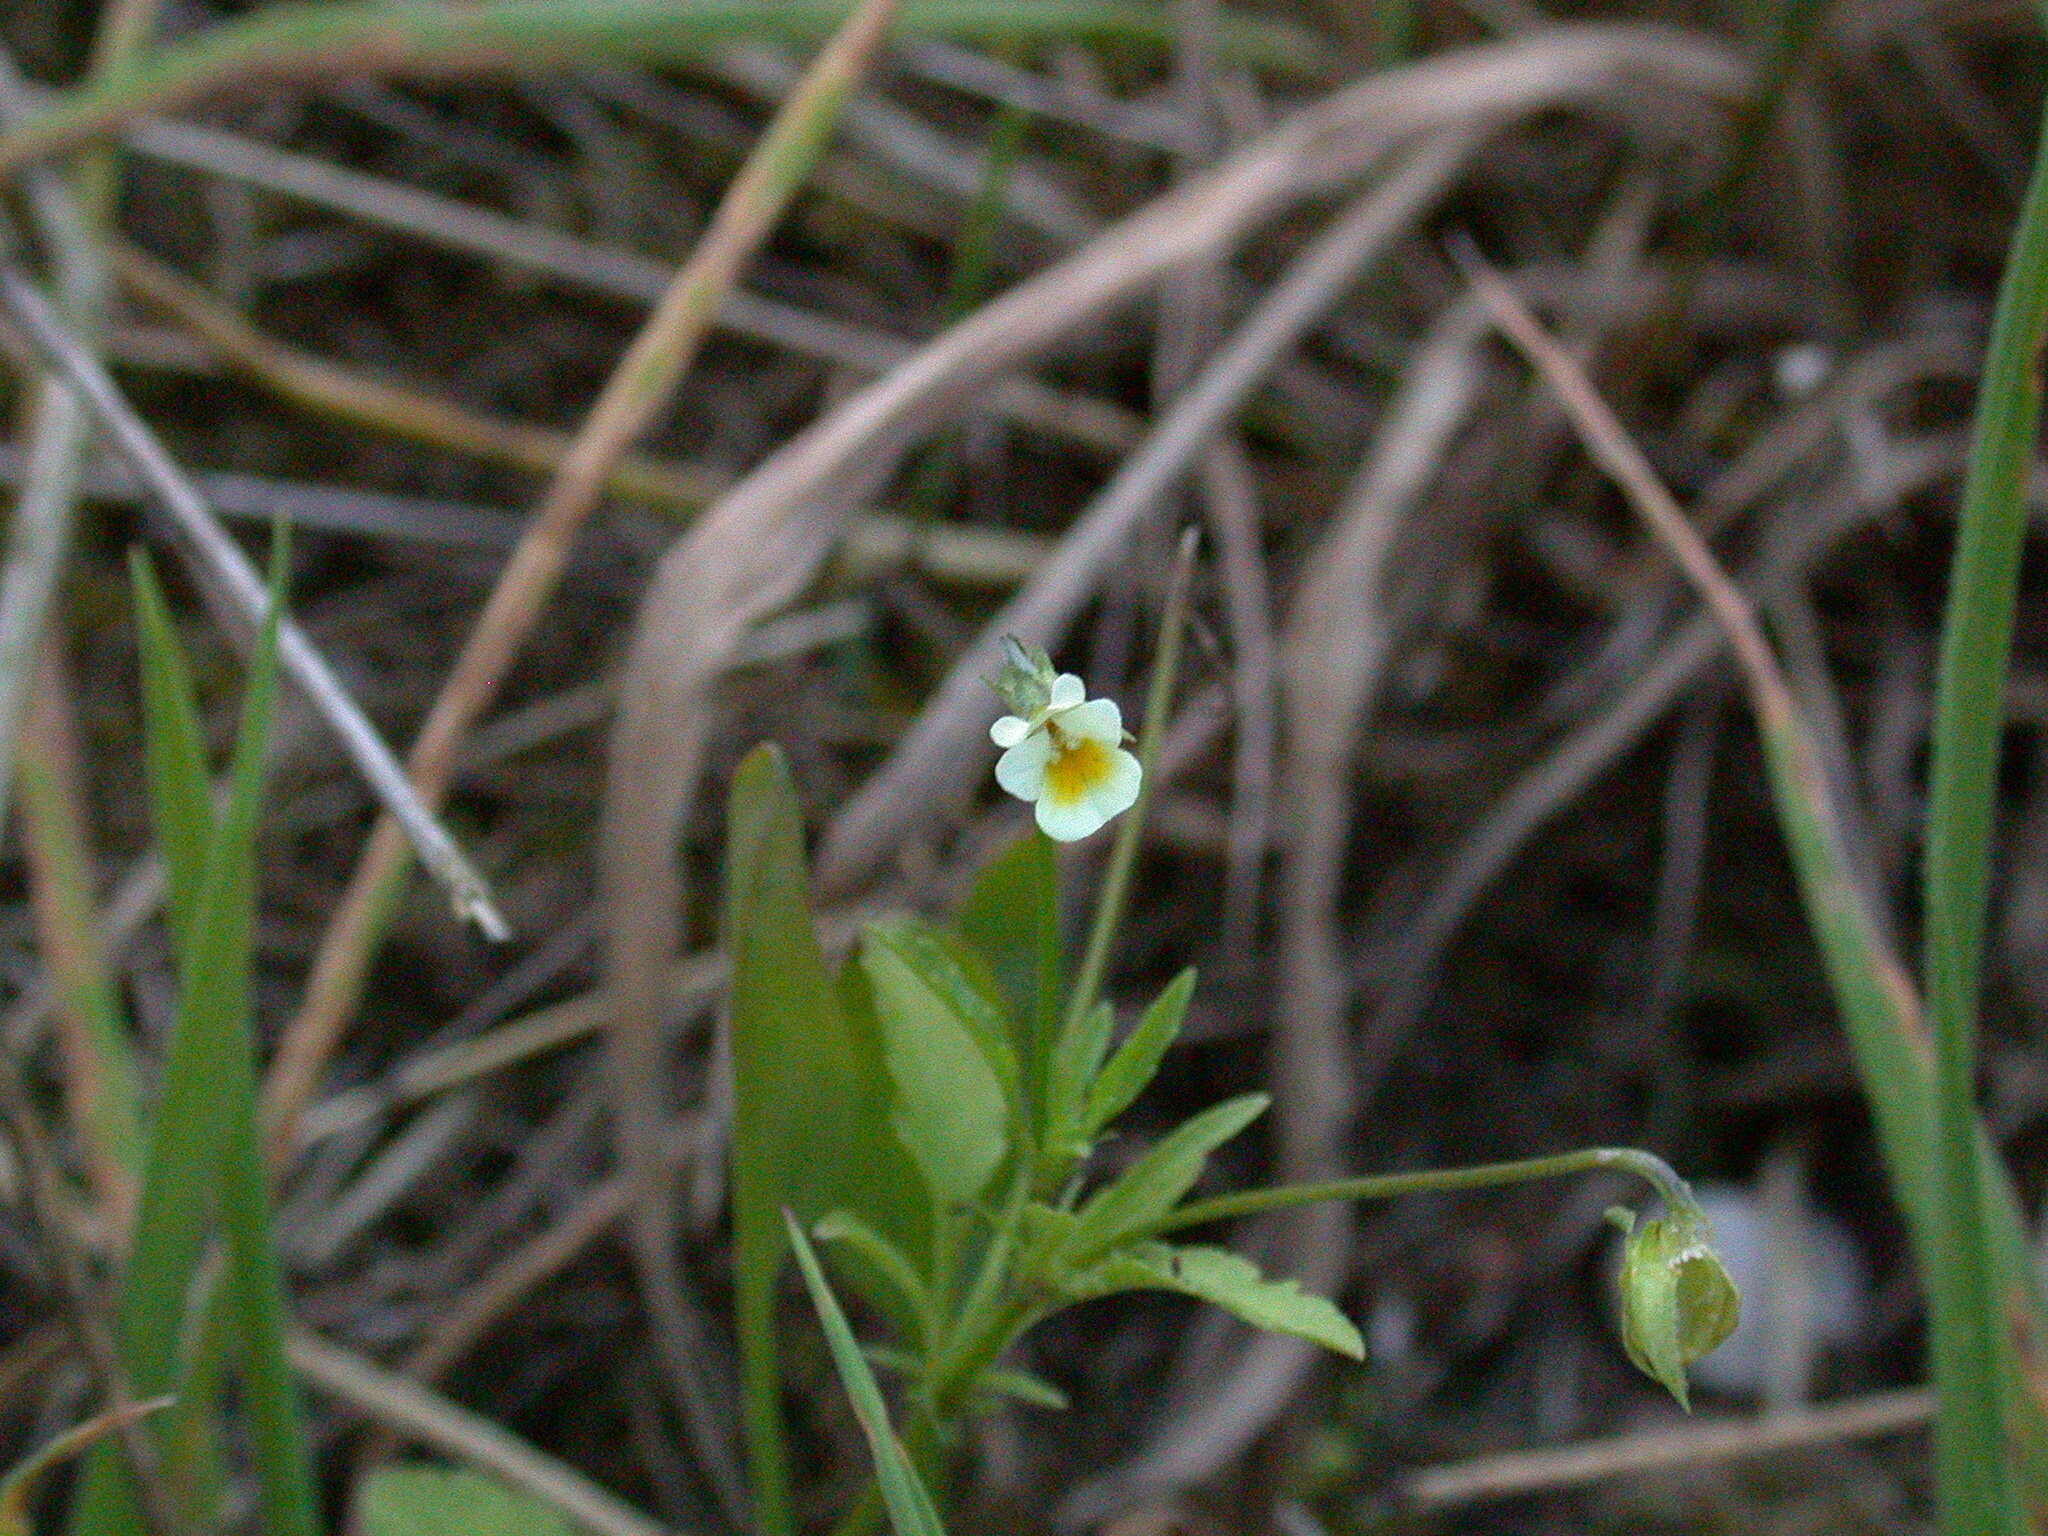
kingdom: Plantae
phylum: Tracheophyta
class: Magnoliopsida
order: Malpighiales
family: Violaceae
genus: Viola
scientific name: Viola arvensis
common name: Field pansy
